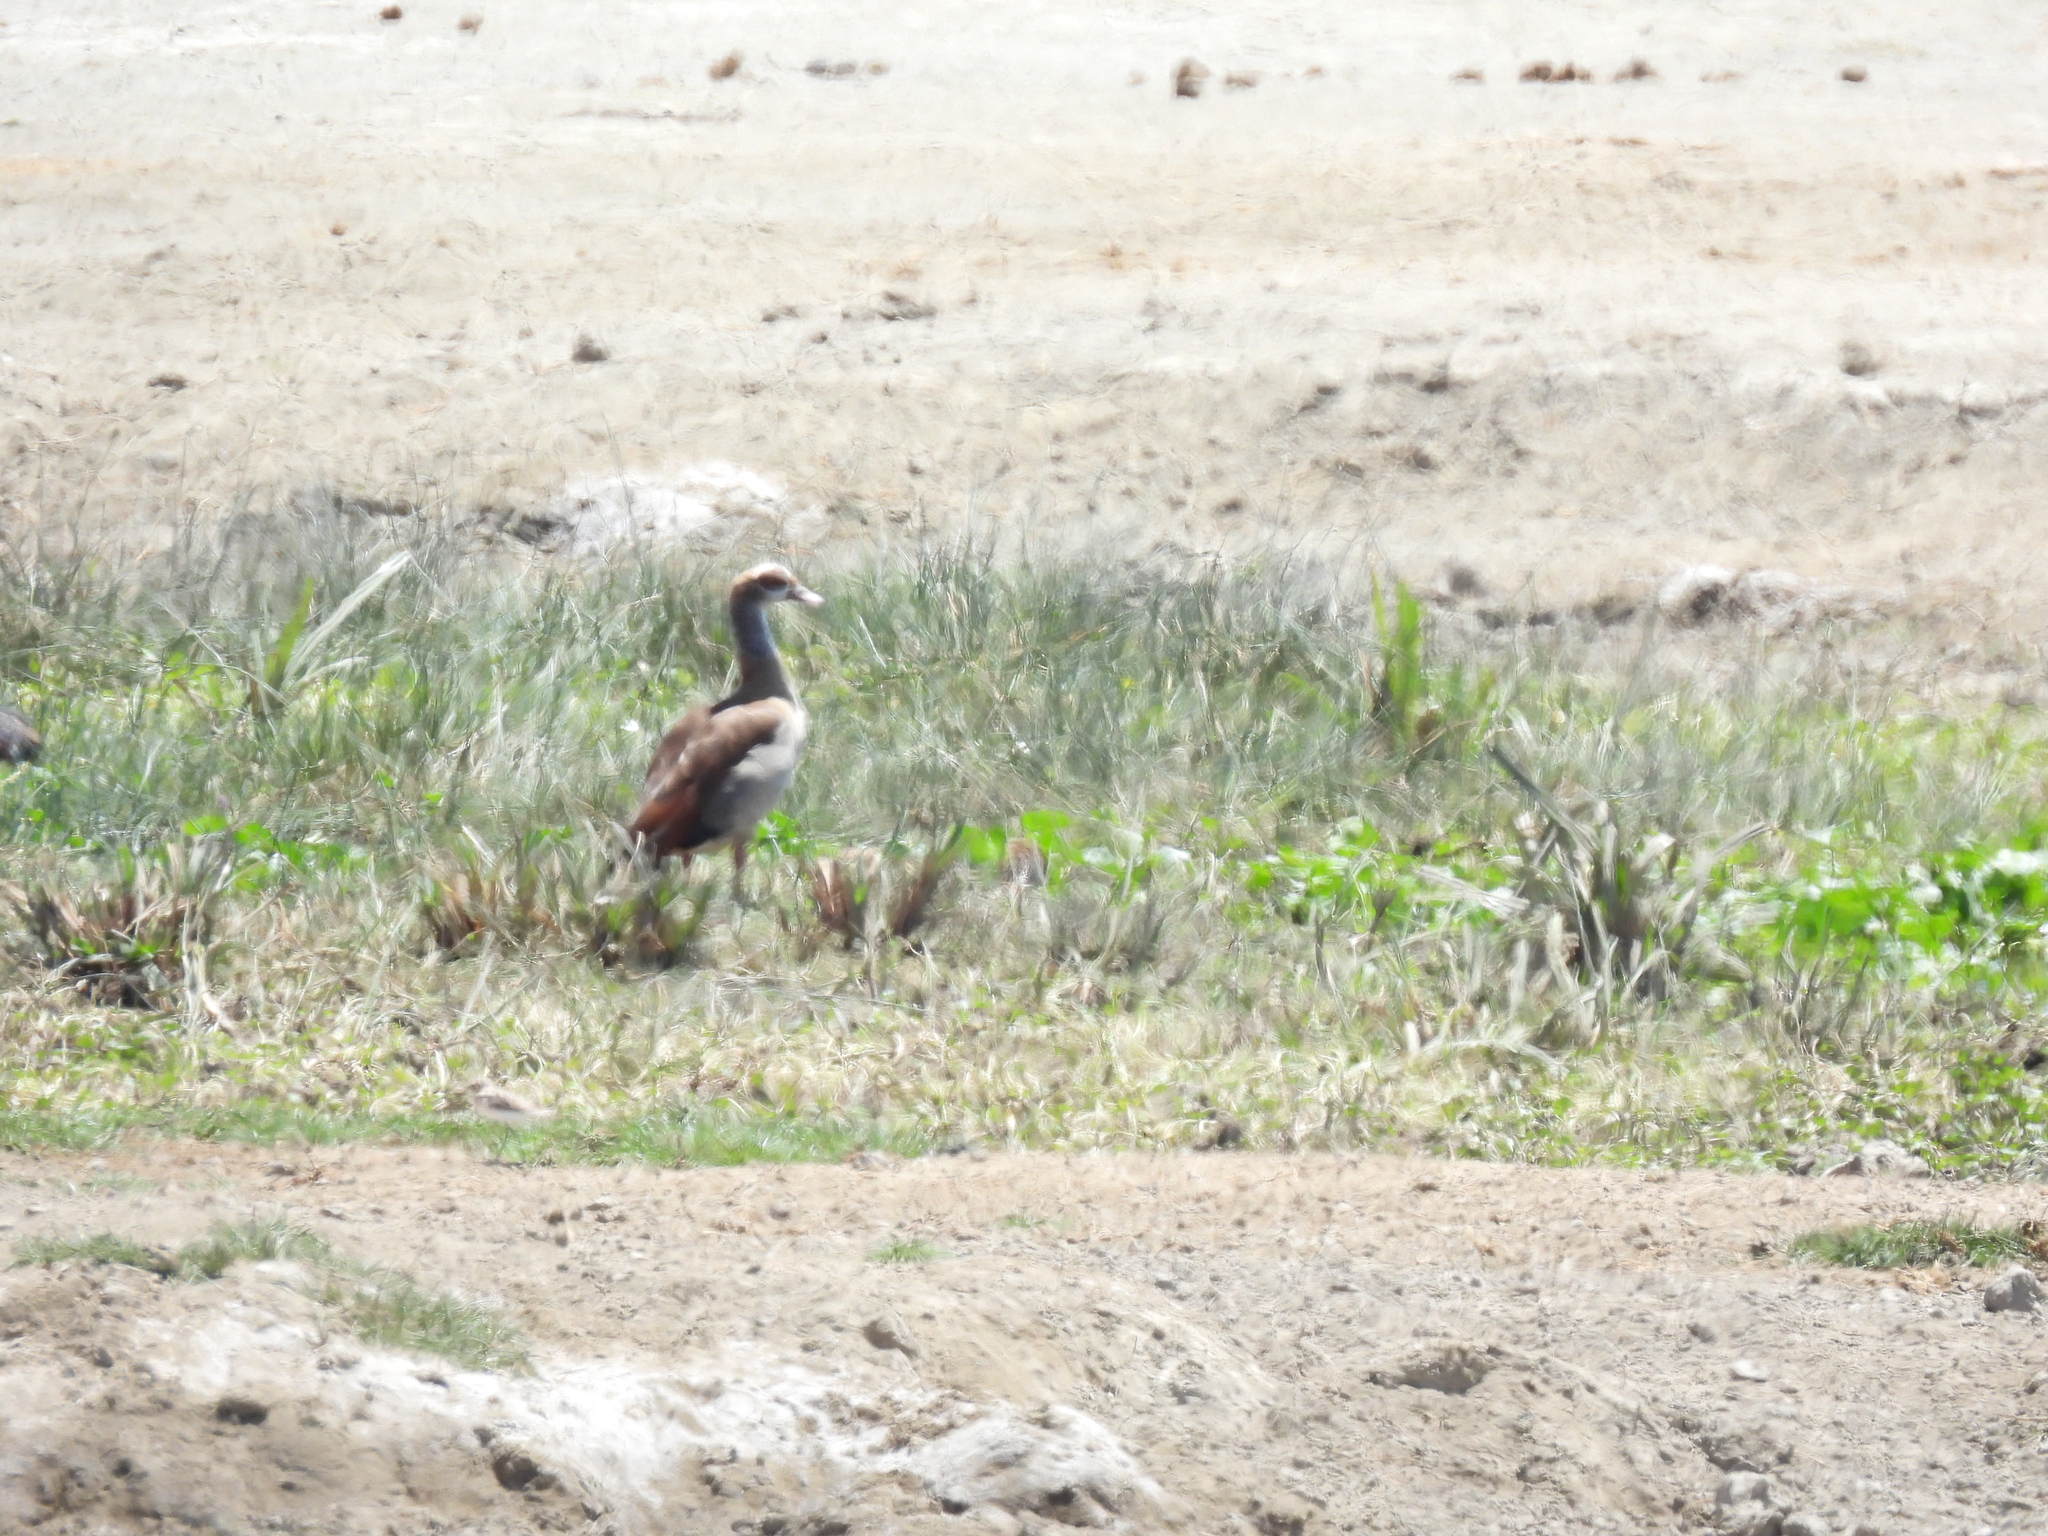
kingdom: Animalia
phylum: Chordata
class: Aves
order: Anseriformes
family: Anatidae
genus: Alopochen
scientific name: Alopochen aegyptiaca
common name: Egyptian goose
